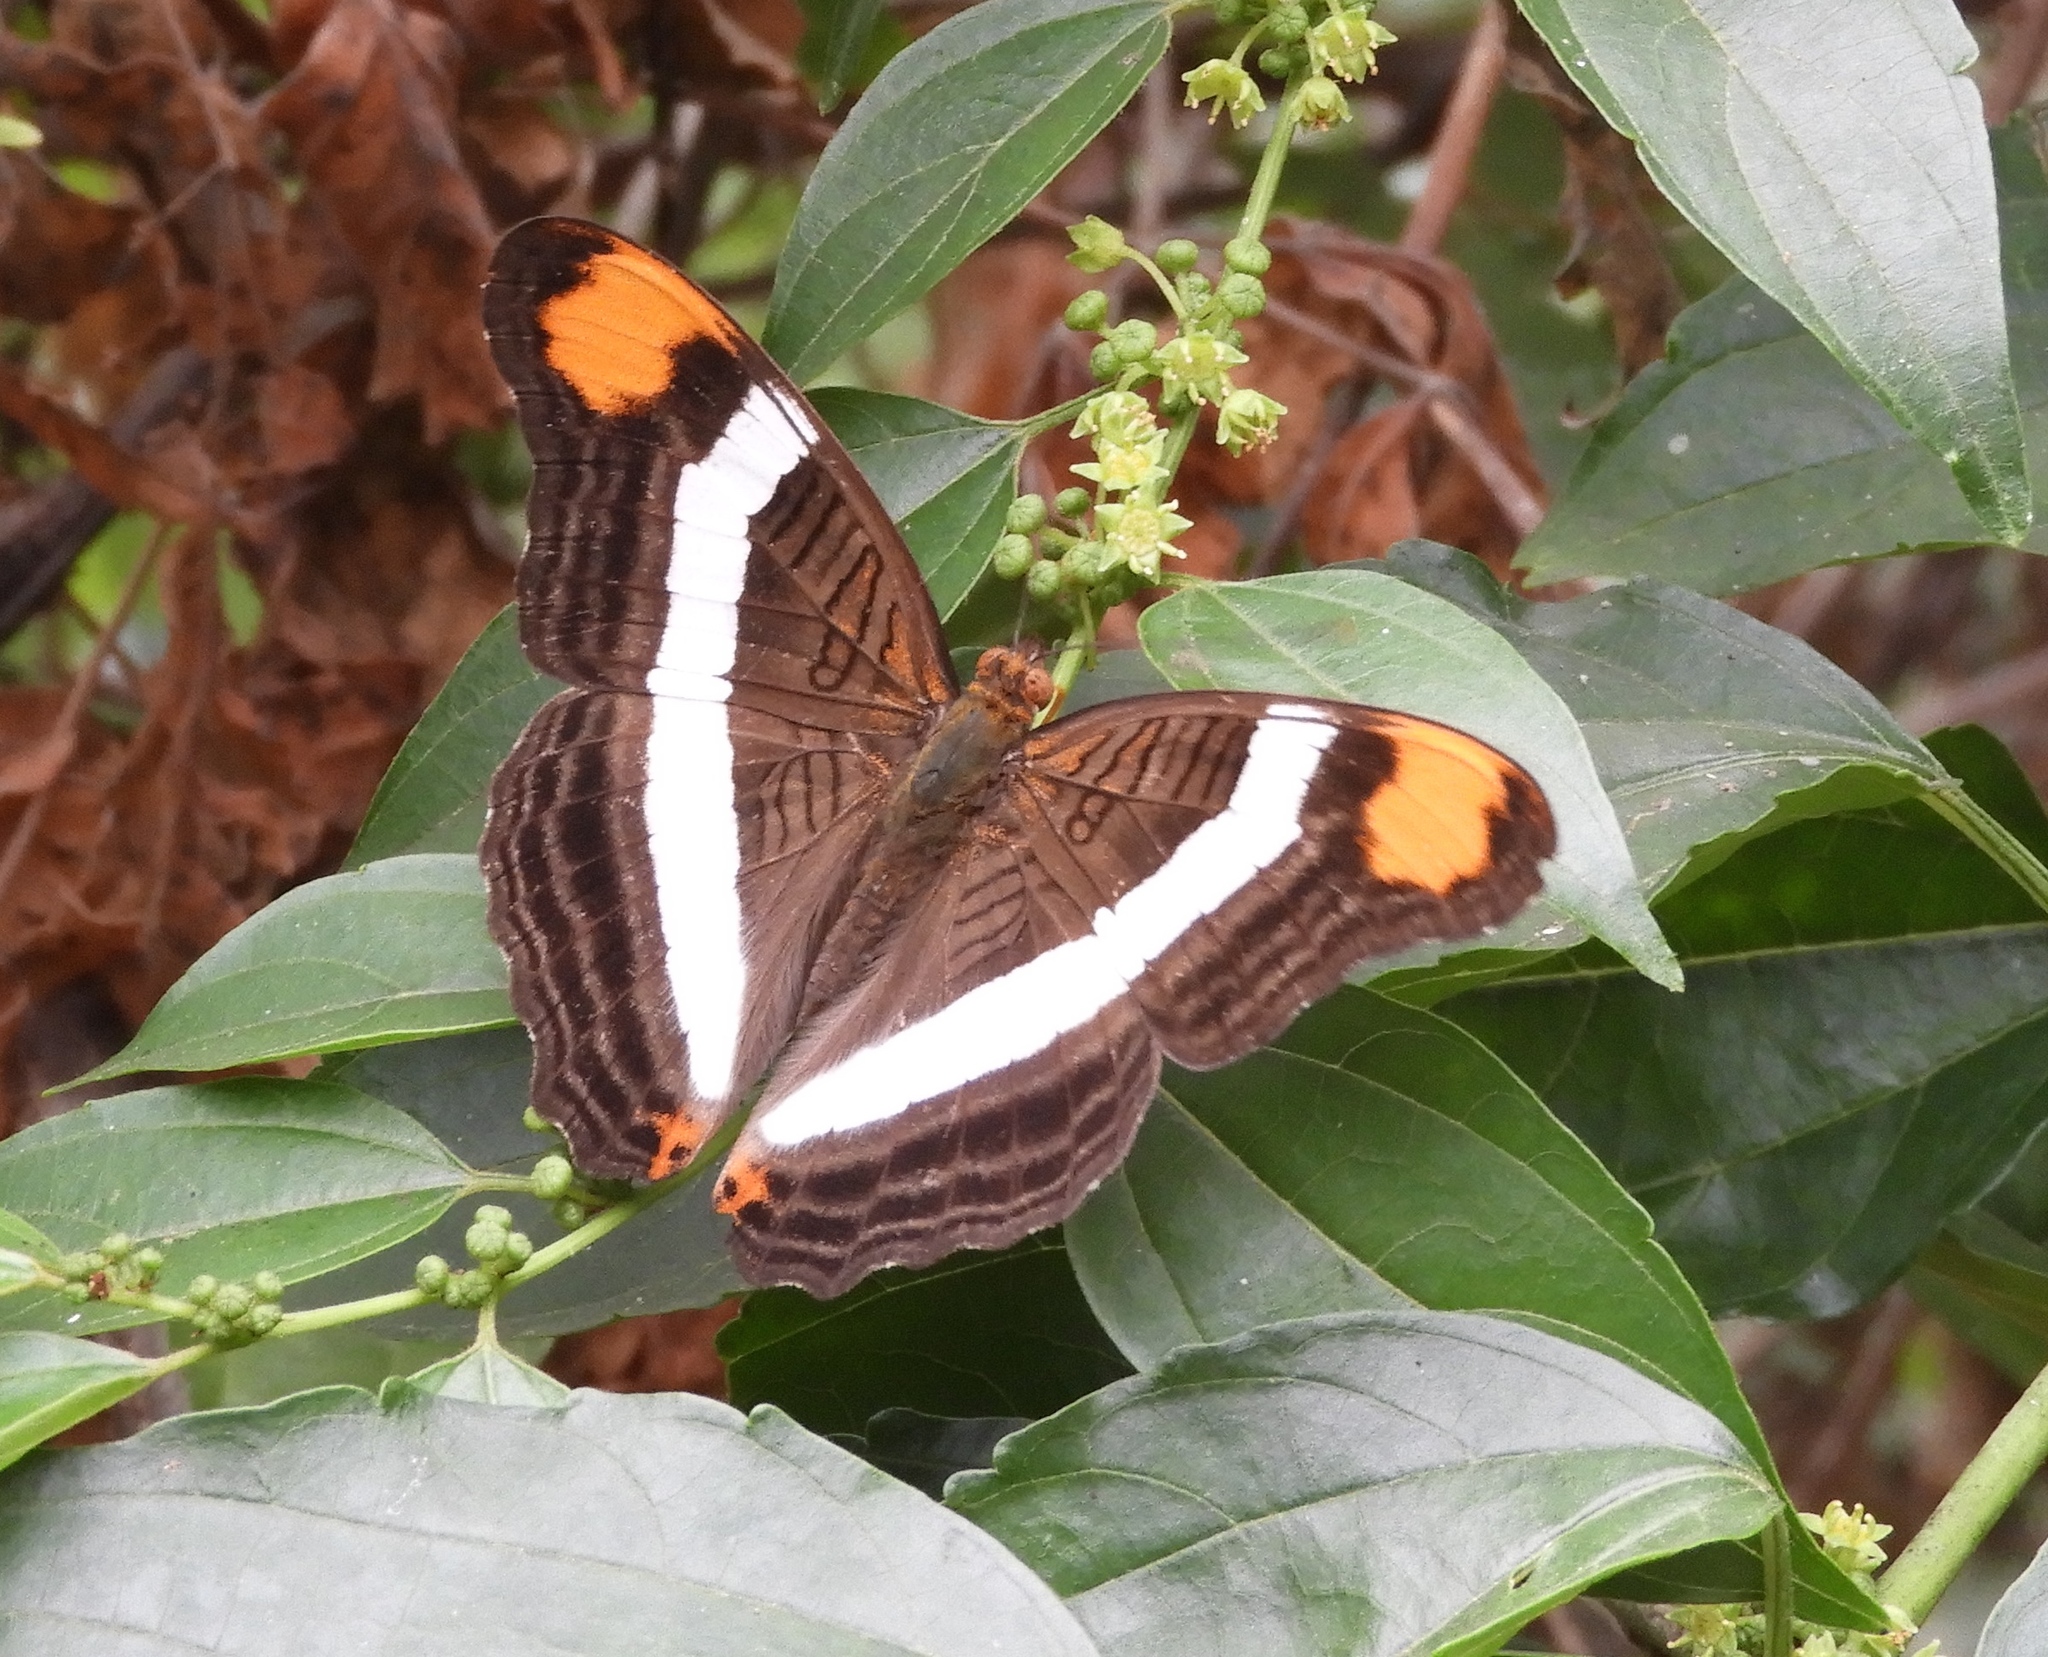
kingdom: Animalia
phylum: Arthropoda
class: Insecta
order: Lepidoptera
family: Nymphalidae
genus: Limenitis
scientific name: Limenitis fessonia
